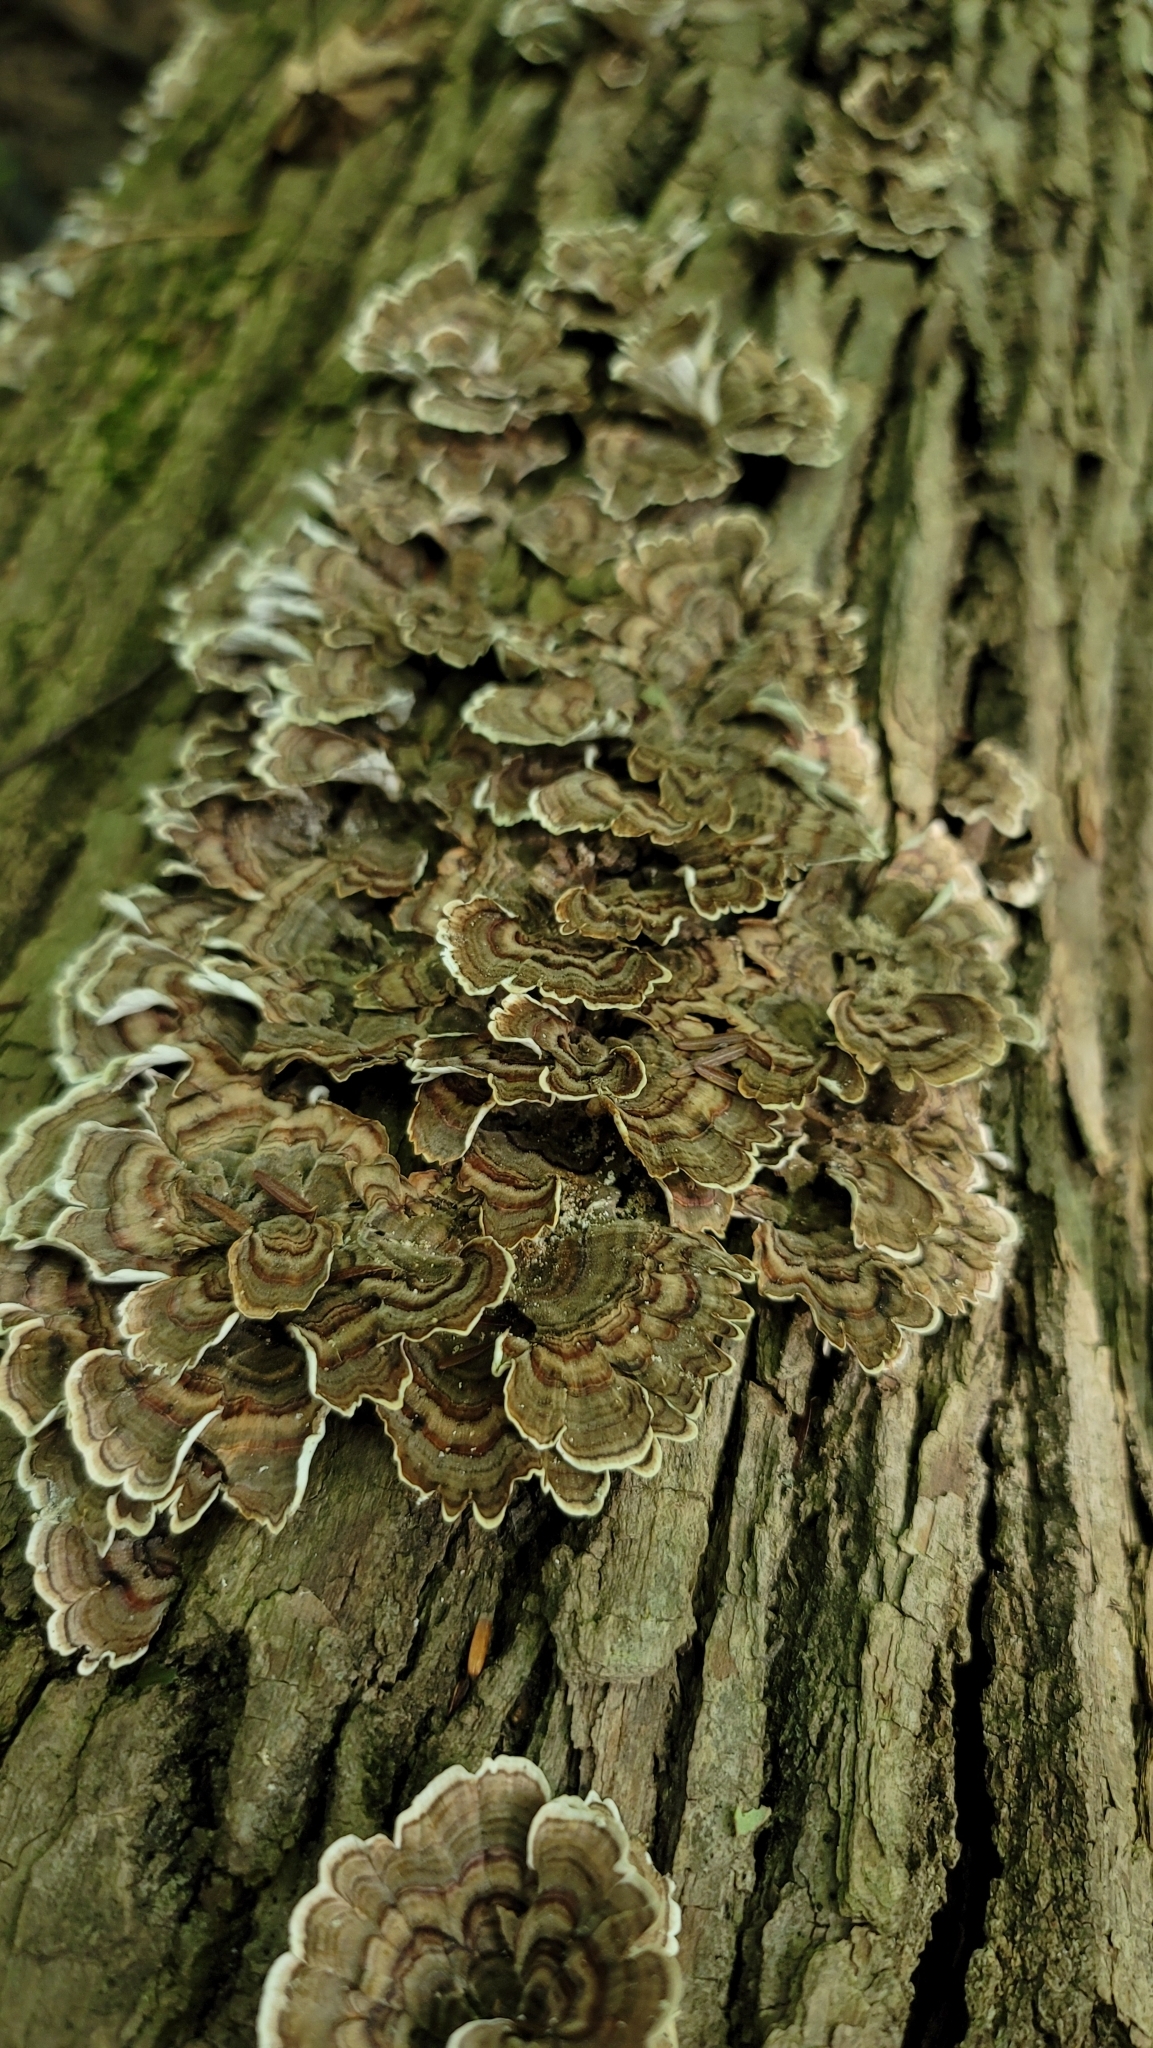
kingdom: Fungi
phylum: Basidiomycota
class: Agaricomycetes
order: Polyporales
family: Polyporaceae
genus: Trametes
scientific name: Trametes versicolor
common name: Turkeytail
